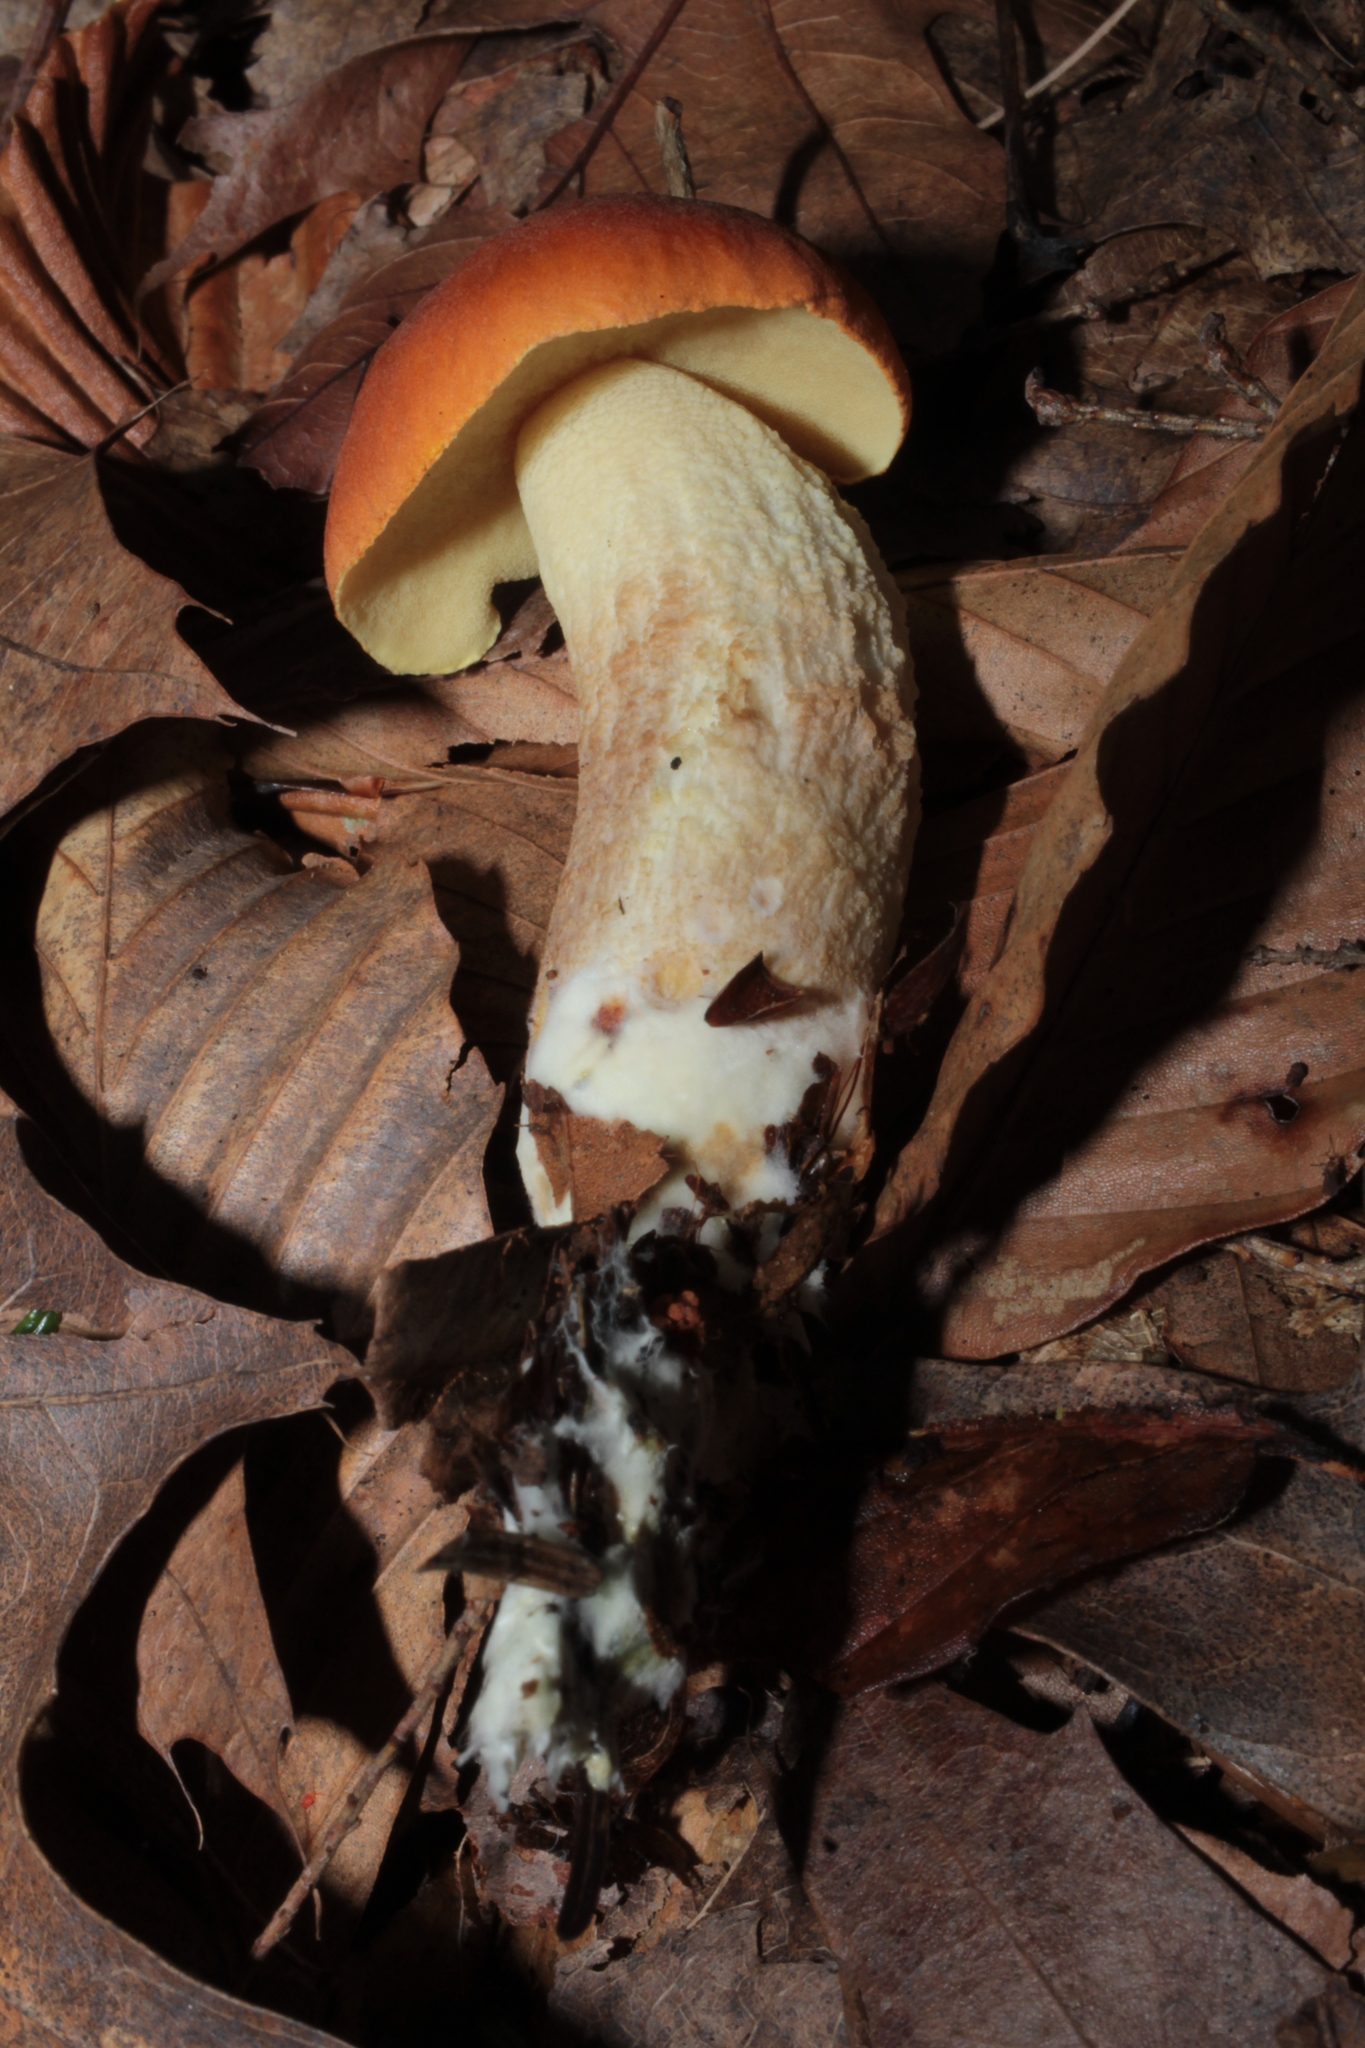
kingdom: Fungi
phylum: Basidiomycota
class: Agaricomycetes
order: Boletales
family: Boletaceae
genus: Leccinum
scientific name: Leccinum longicurvipes
